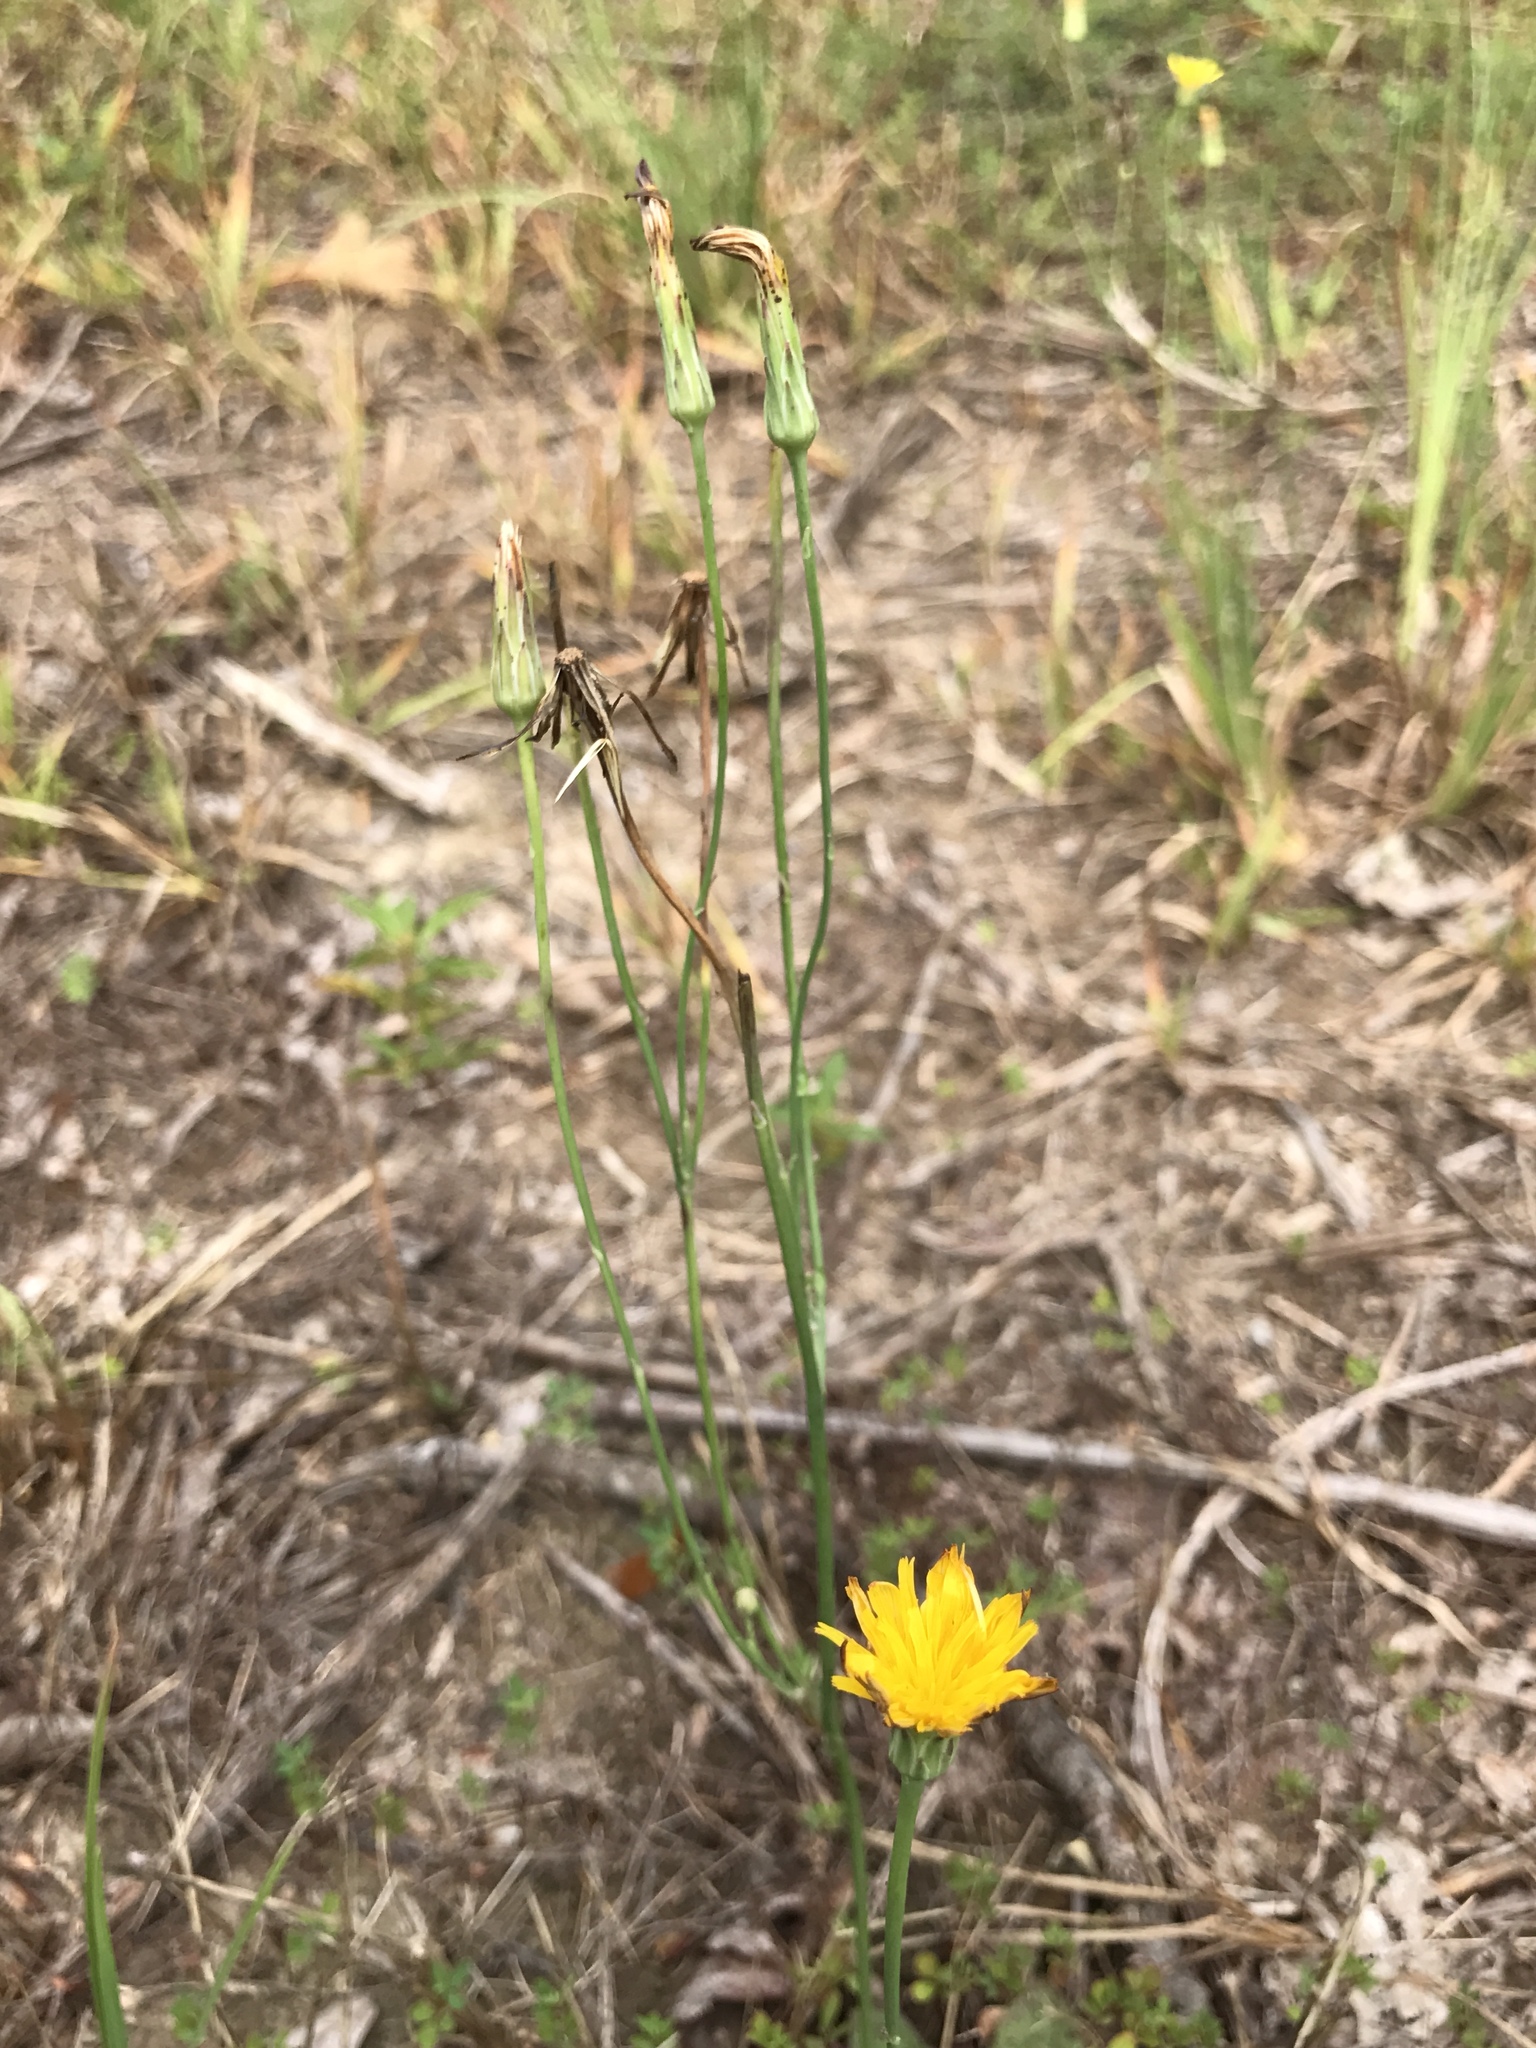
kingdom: Plantae
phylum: Tracheophyta
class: Magnoliopsida
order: Asterales
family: Asteraceae
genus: Hypochaeris
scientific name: Hypochaeris radicata
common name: Flatweed
